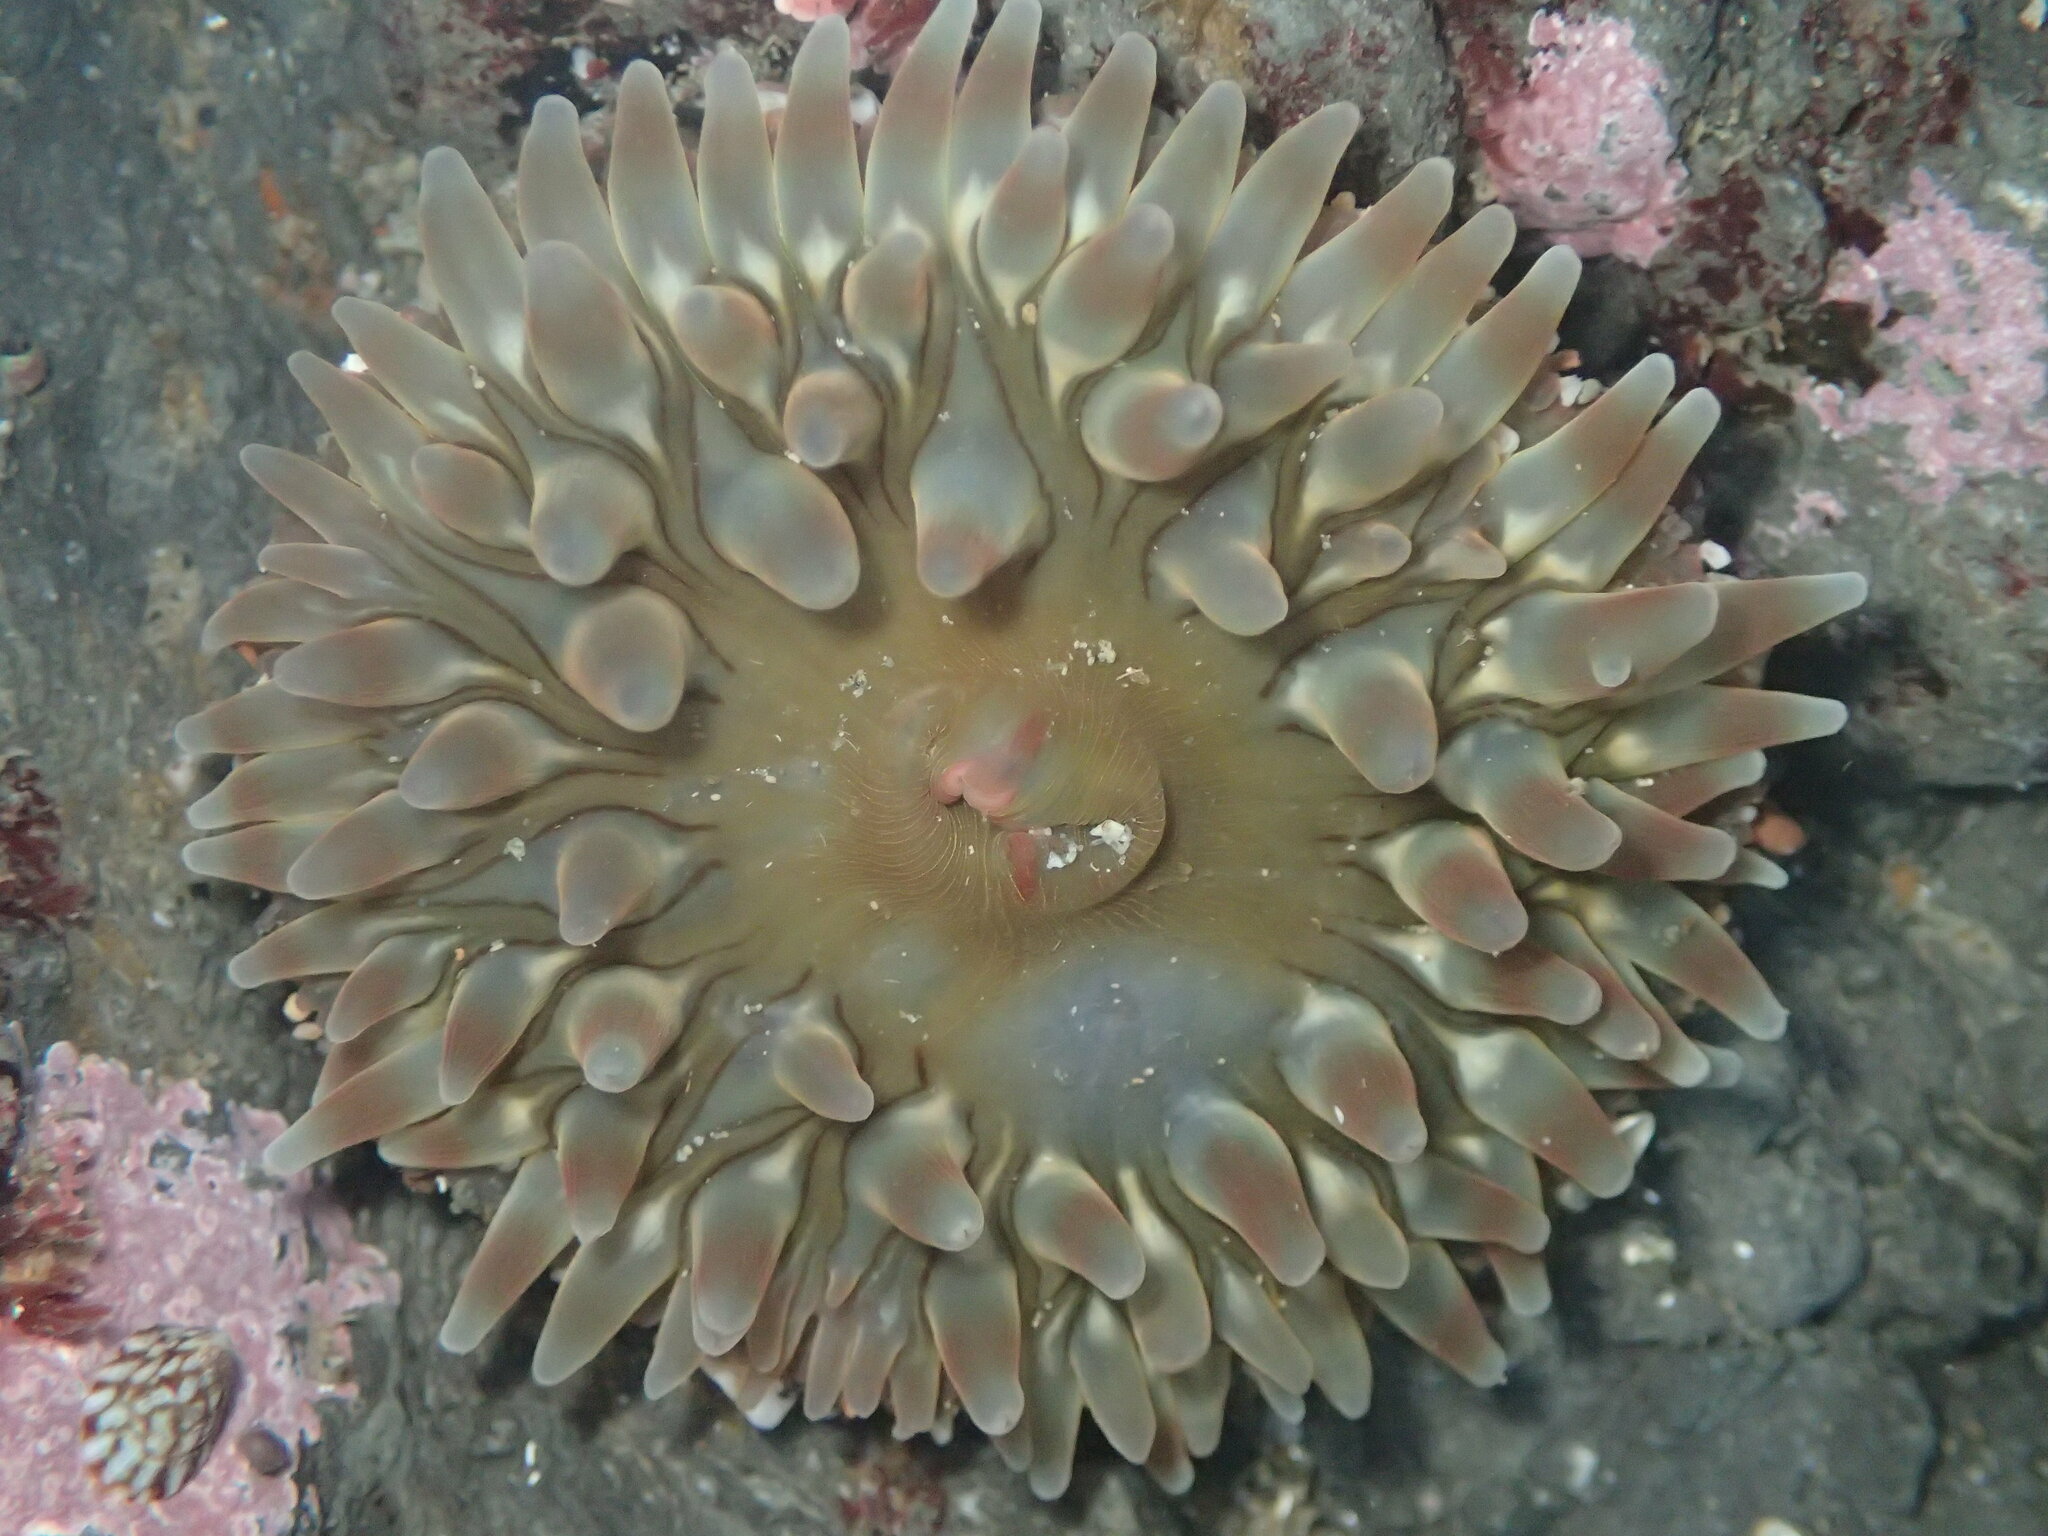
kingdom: Animalia
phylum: Cnidaria
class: Anthozoa
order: Actiniaria
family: Actiniidae
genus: Urticina
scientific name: Urticina clandestina
